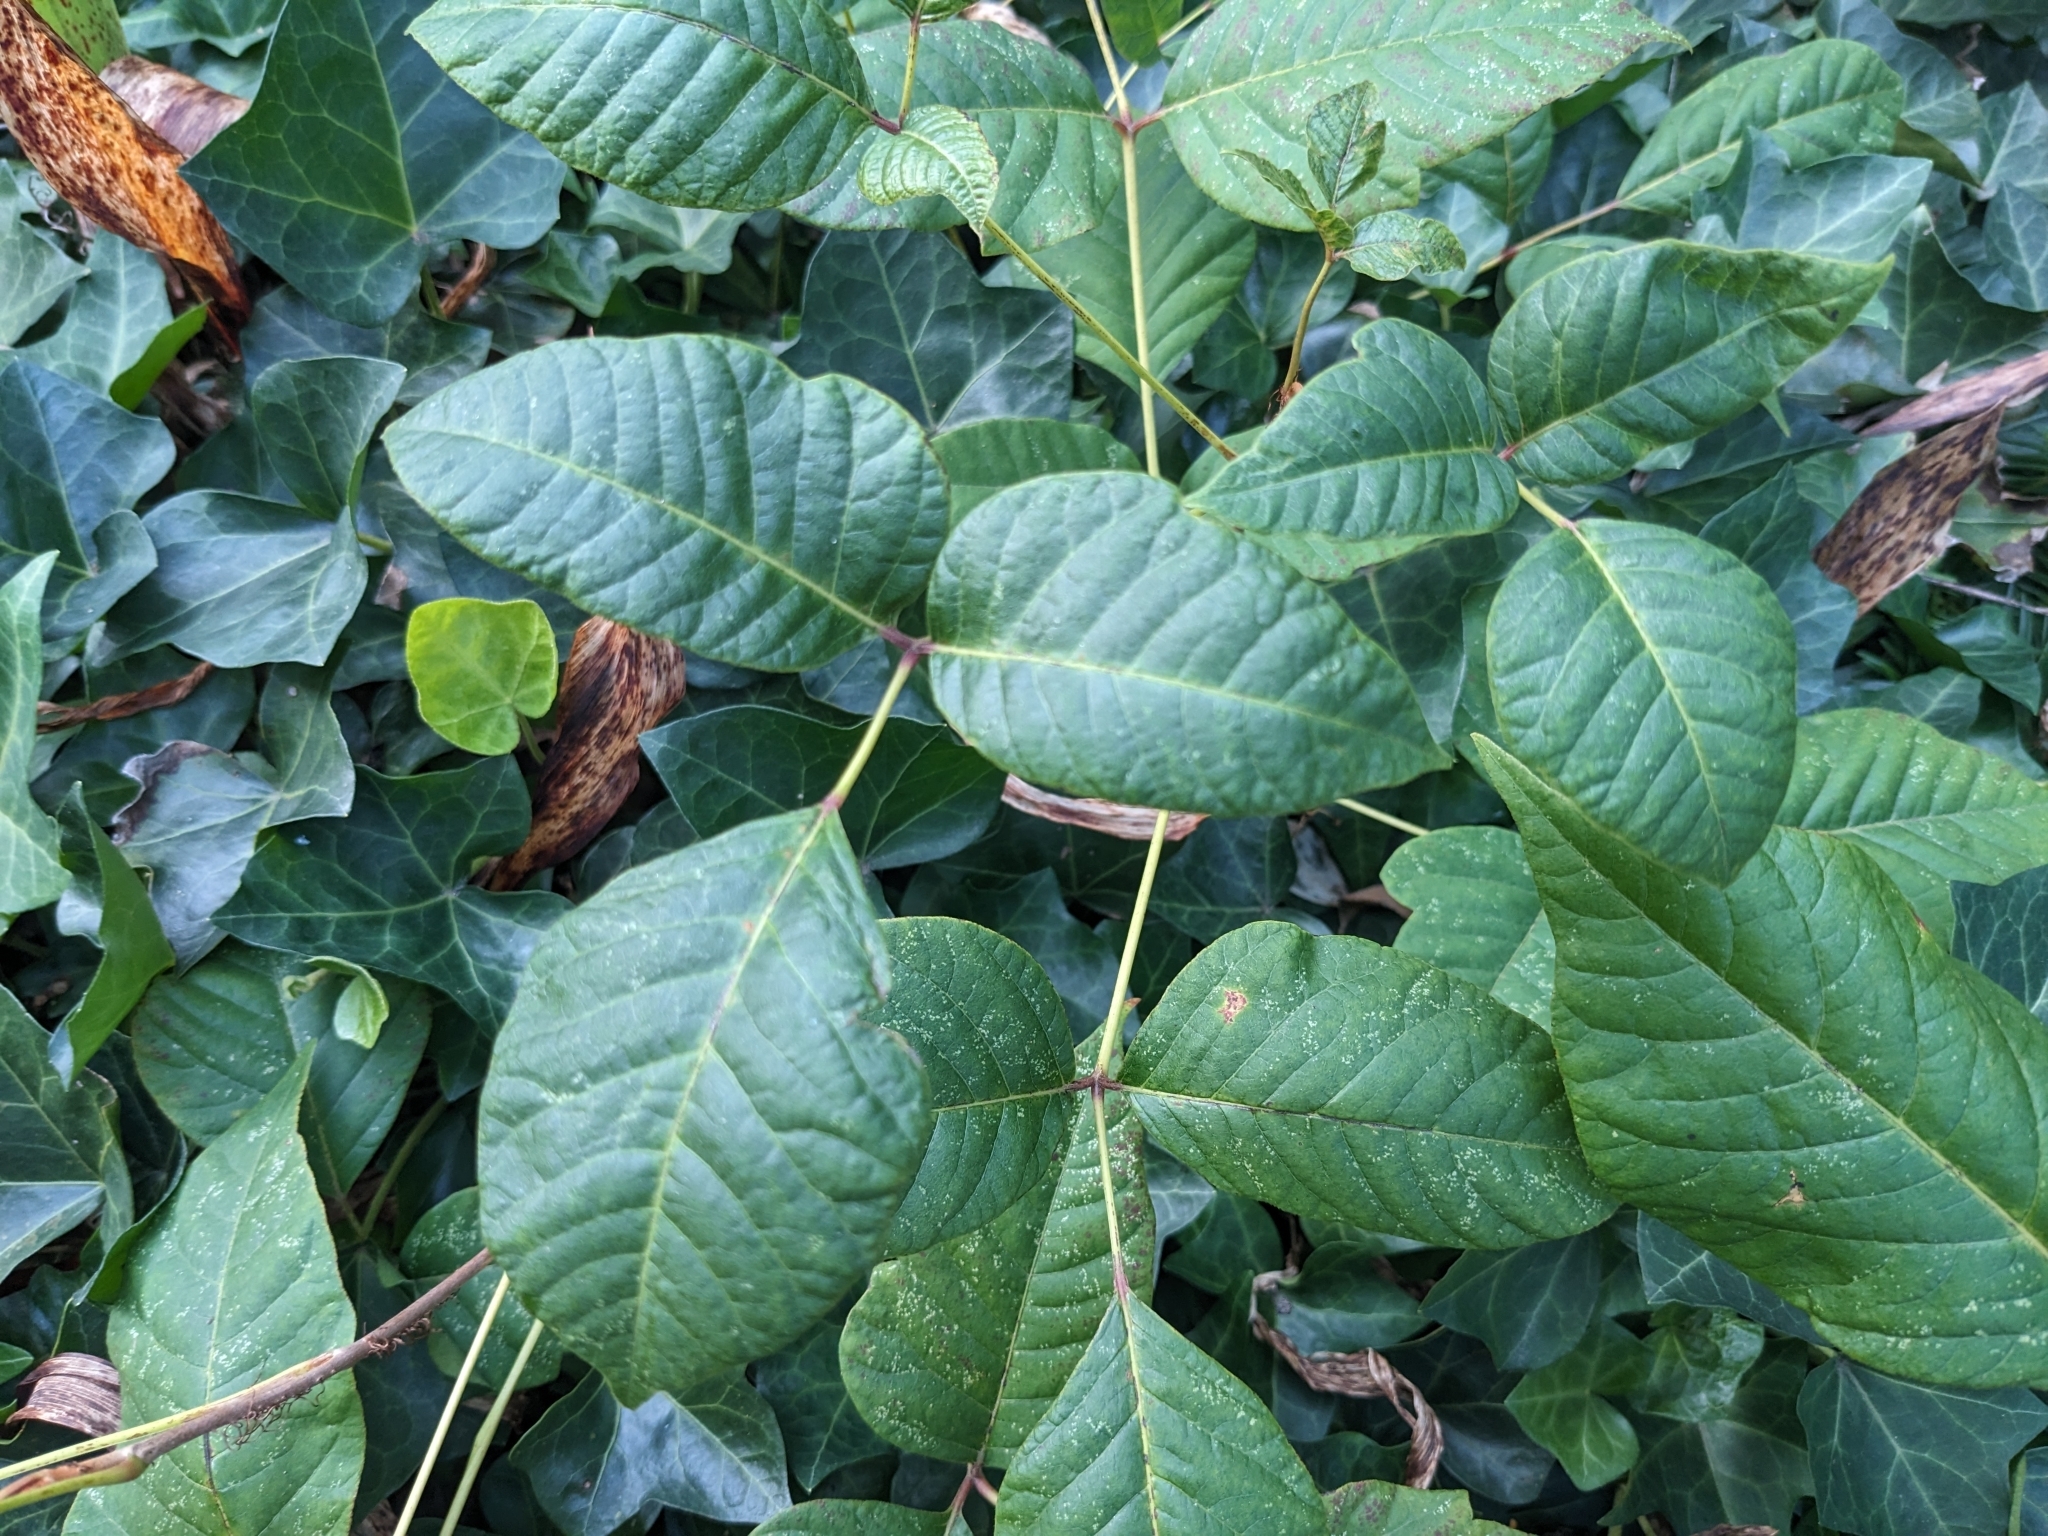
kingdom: Plantae
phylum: Tracheophyta
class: Magnoliopsida
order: Sapindales
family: Anacardiaceae
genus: Toxicodendron
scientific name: Toxicodendron radicans
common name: Poison ivy
